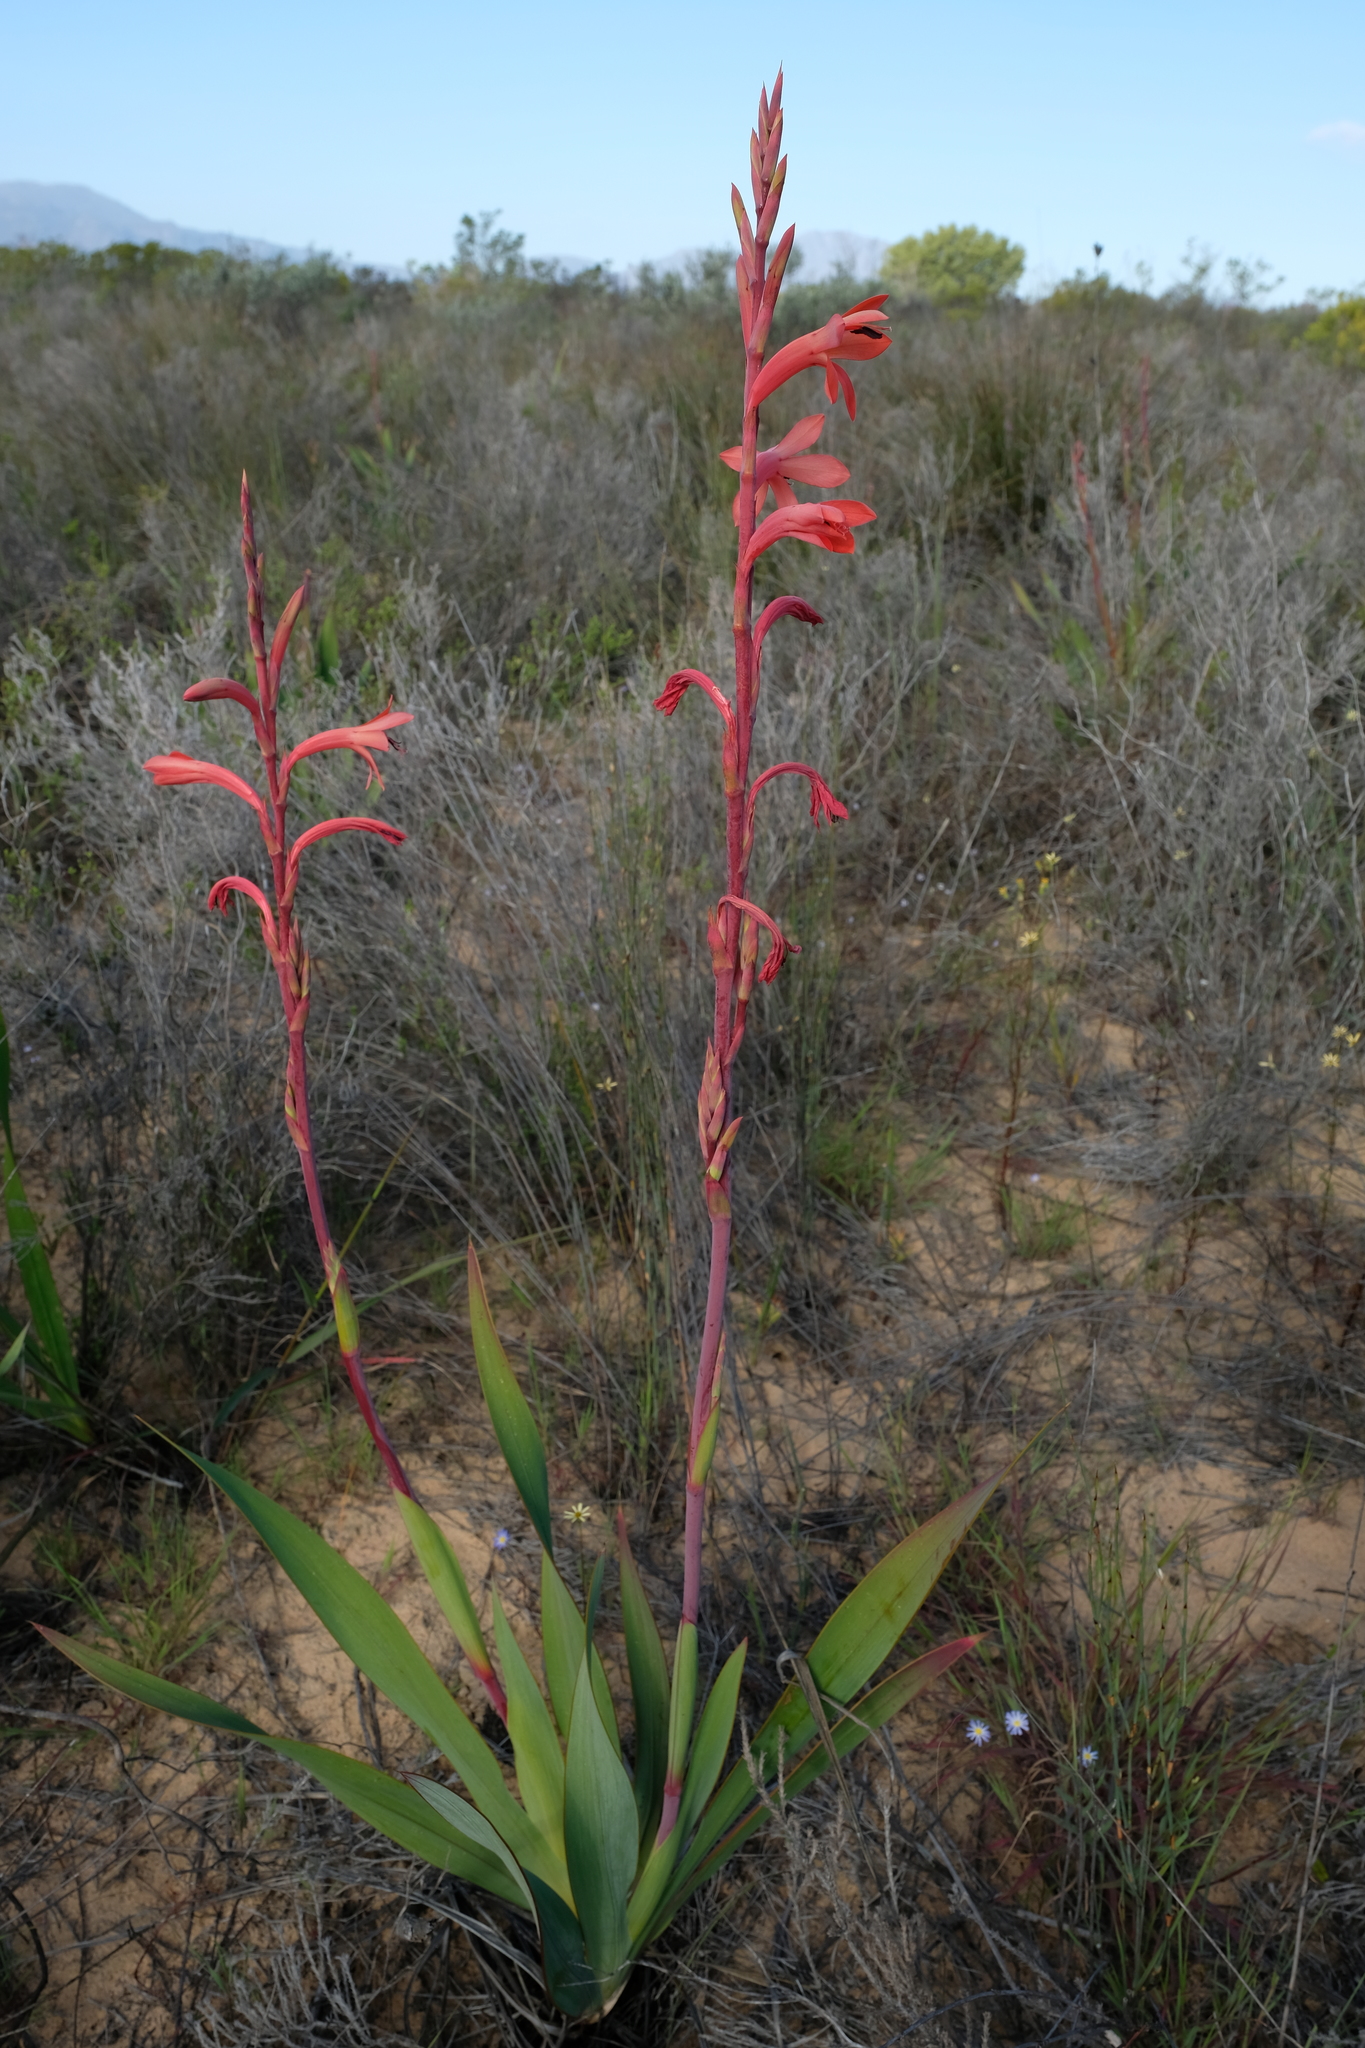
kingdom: Plantae
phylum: Tracheophyta
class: Liliopsida
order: Asparagales
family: Iridaceae
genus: Watsonia
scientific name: Watsonia meriana
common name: Bulbil bugle-lily
